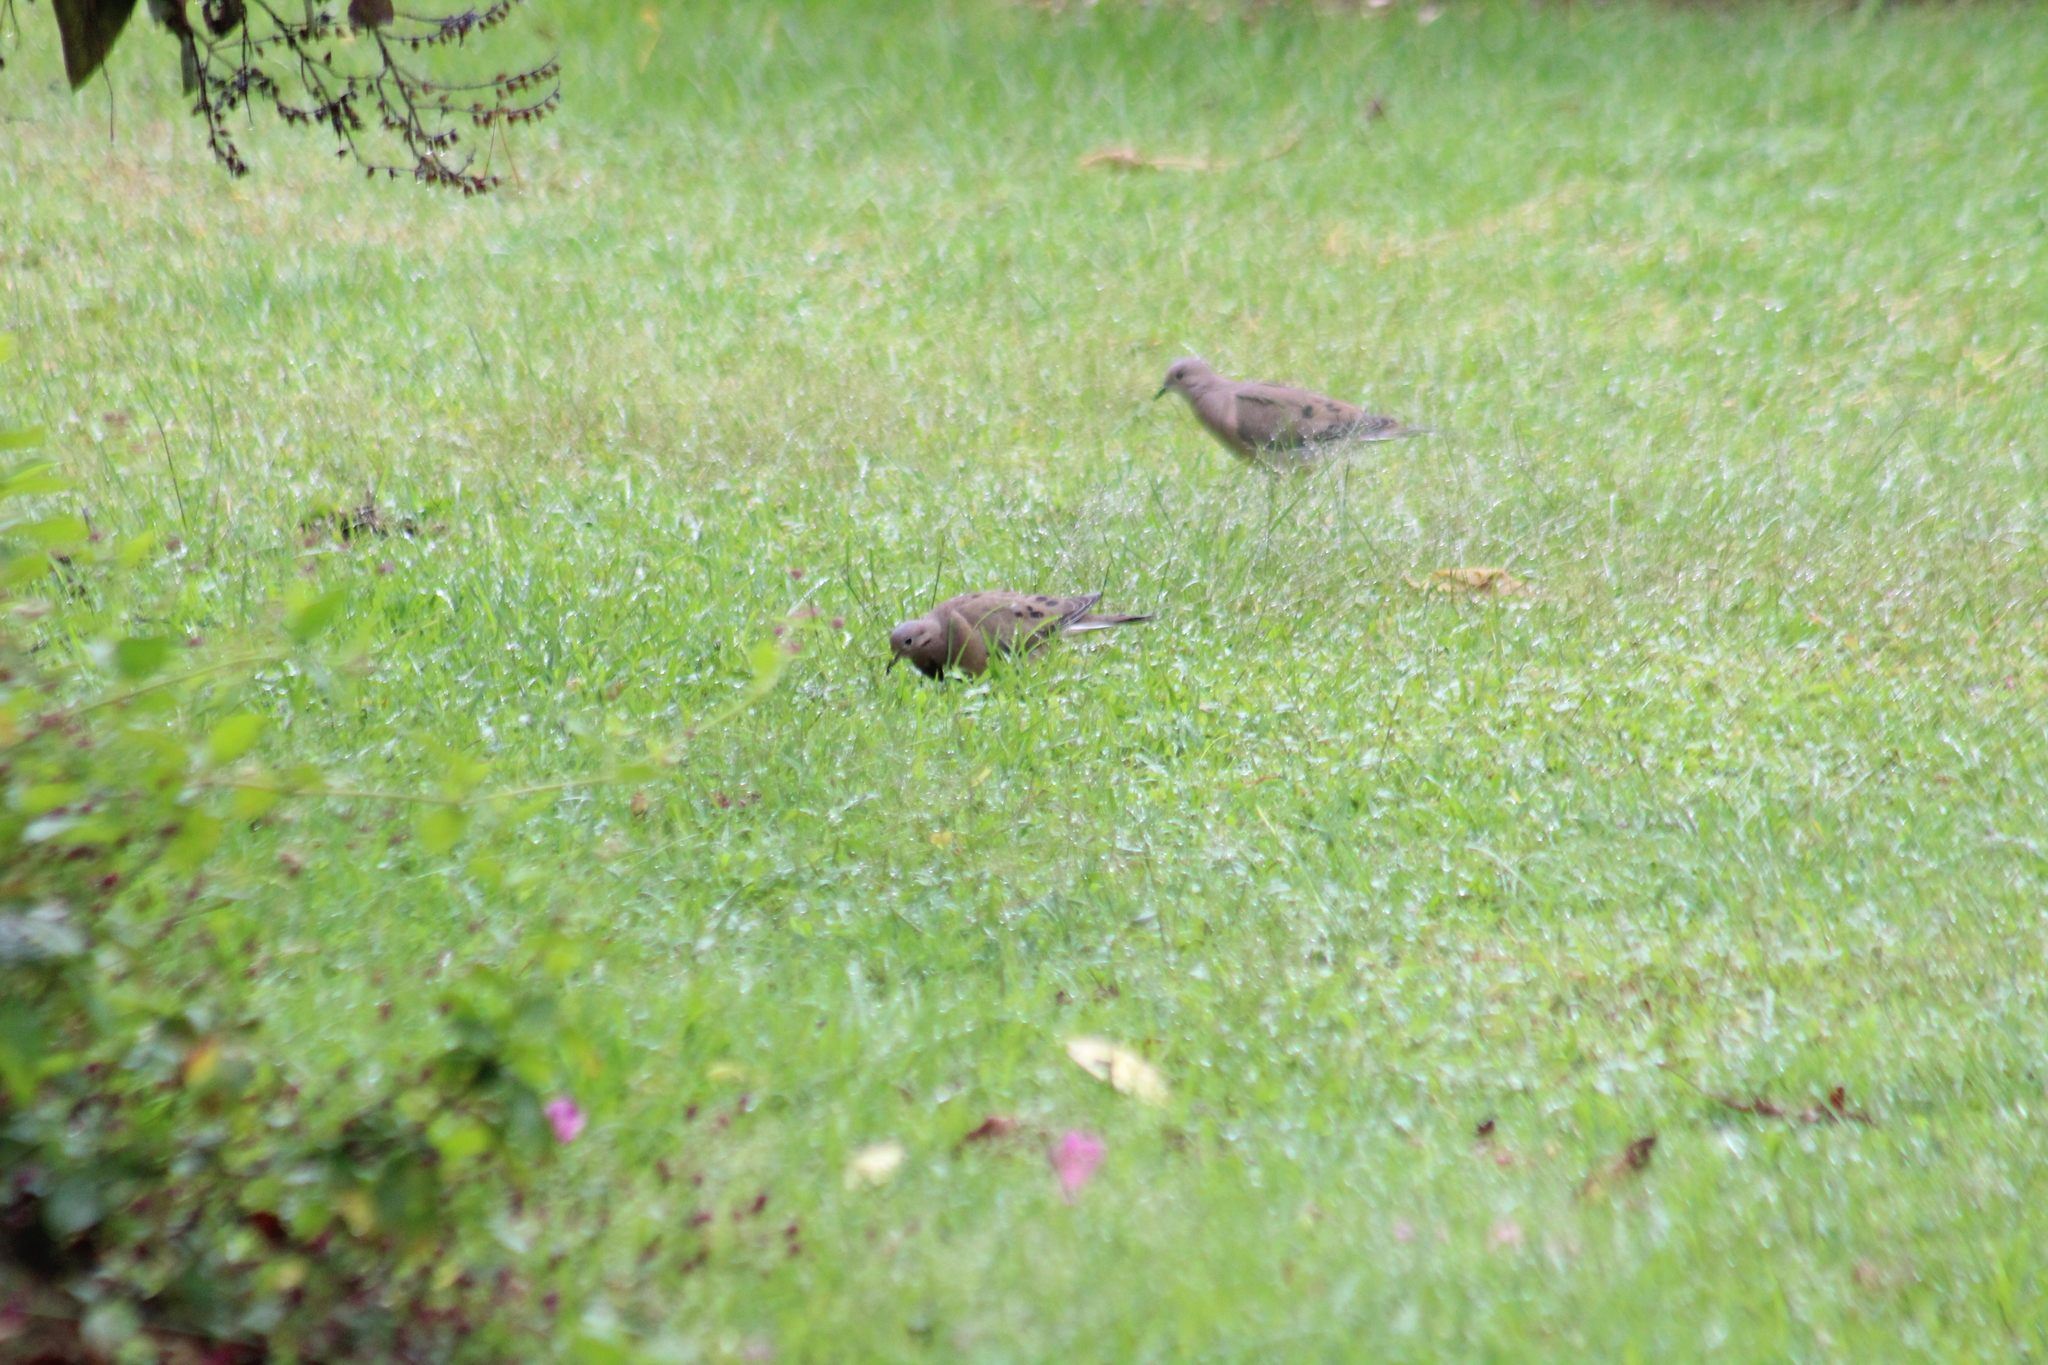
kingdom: Animalia
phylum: Chordata
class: Aves
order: Columbiformes
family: Columbidae
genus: Zenaida
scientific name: Zenaida auriculata
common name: Eared dove
